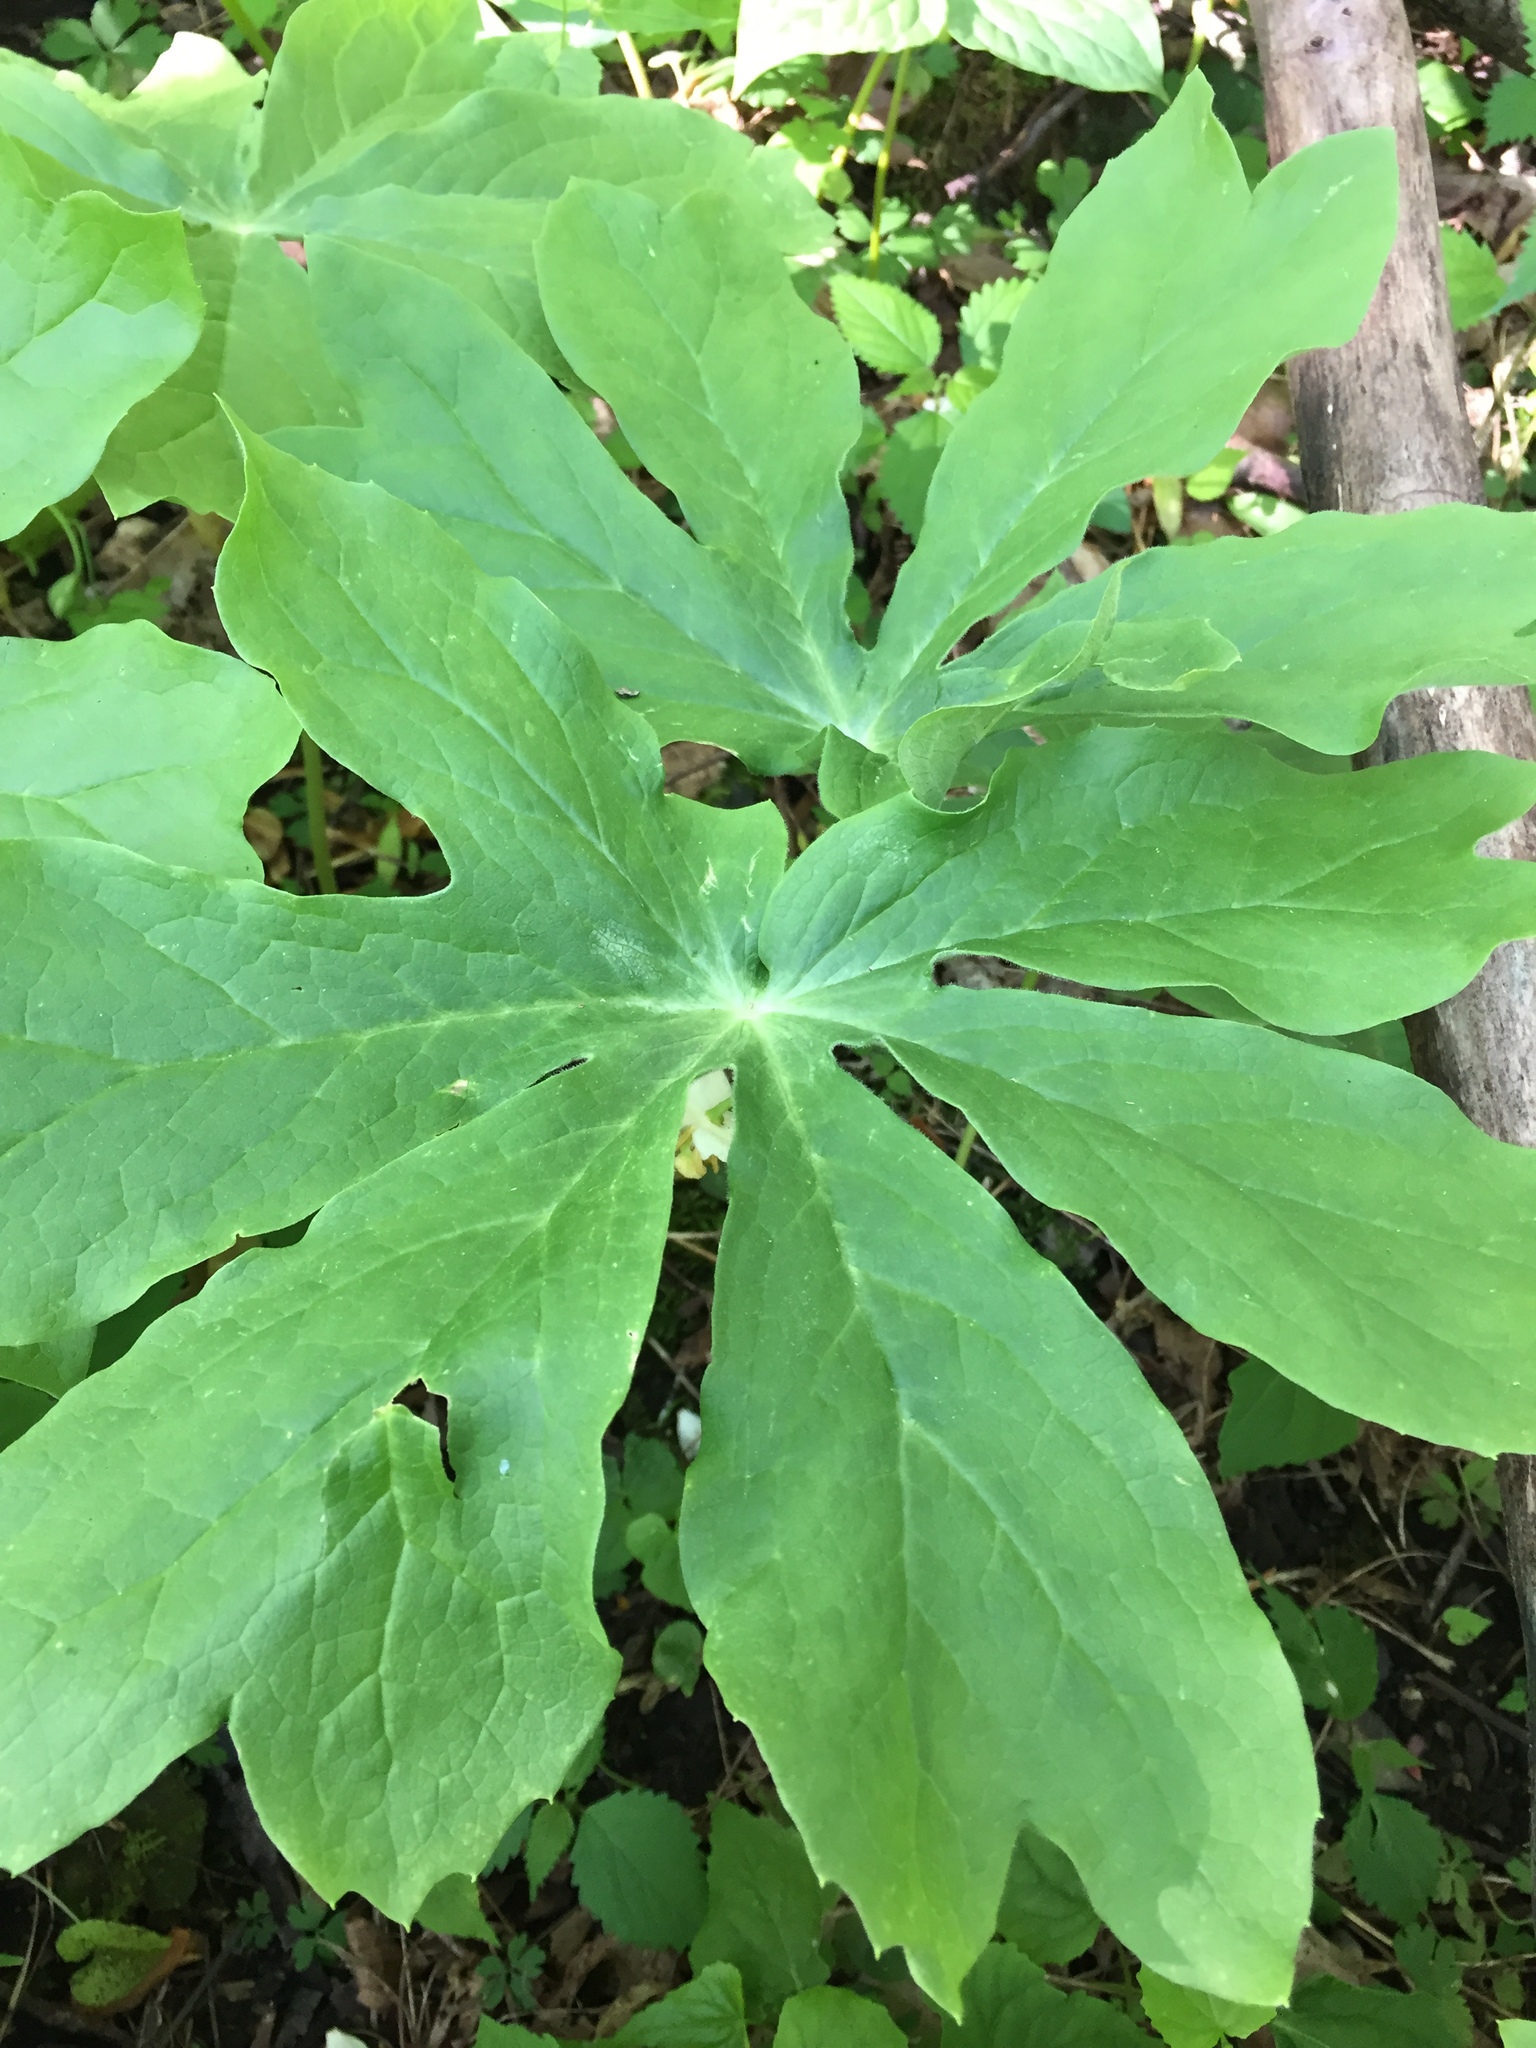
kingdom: Plantae
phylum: Tracheophyta
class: Magnoliopsida
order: Ranunculales
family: Berberidaceae
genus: Podophyllum
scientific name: Podophyllum peltatum
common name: Wild mandrake
